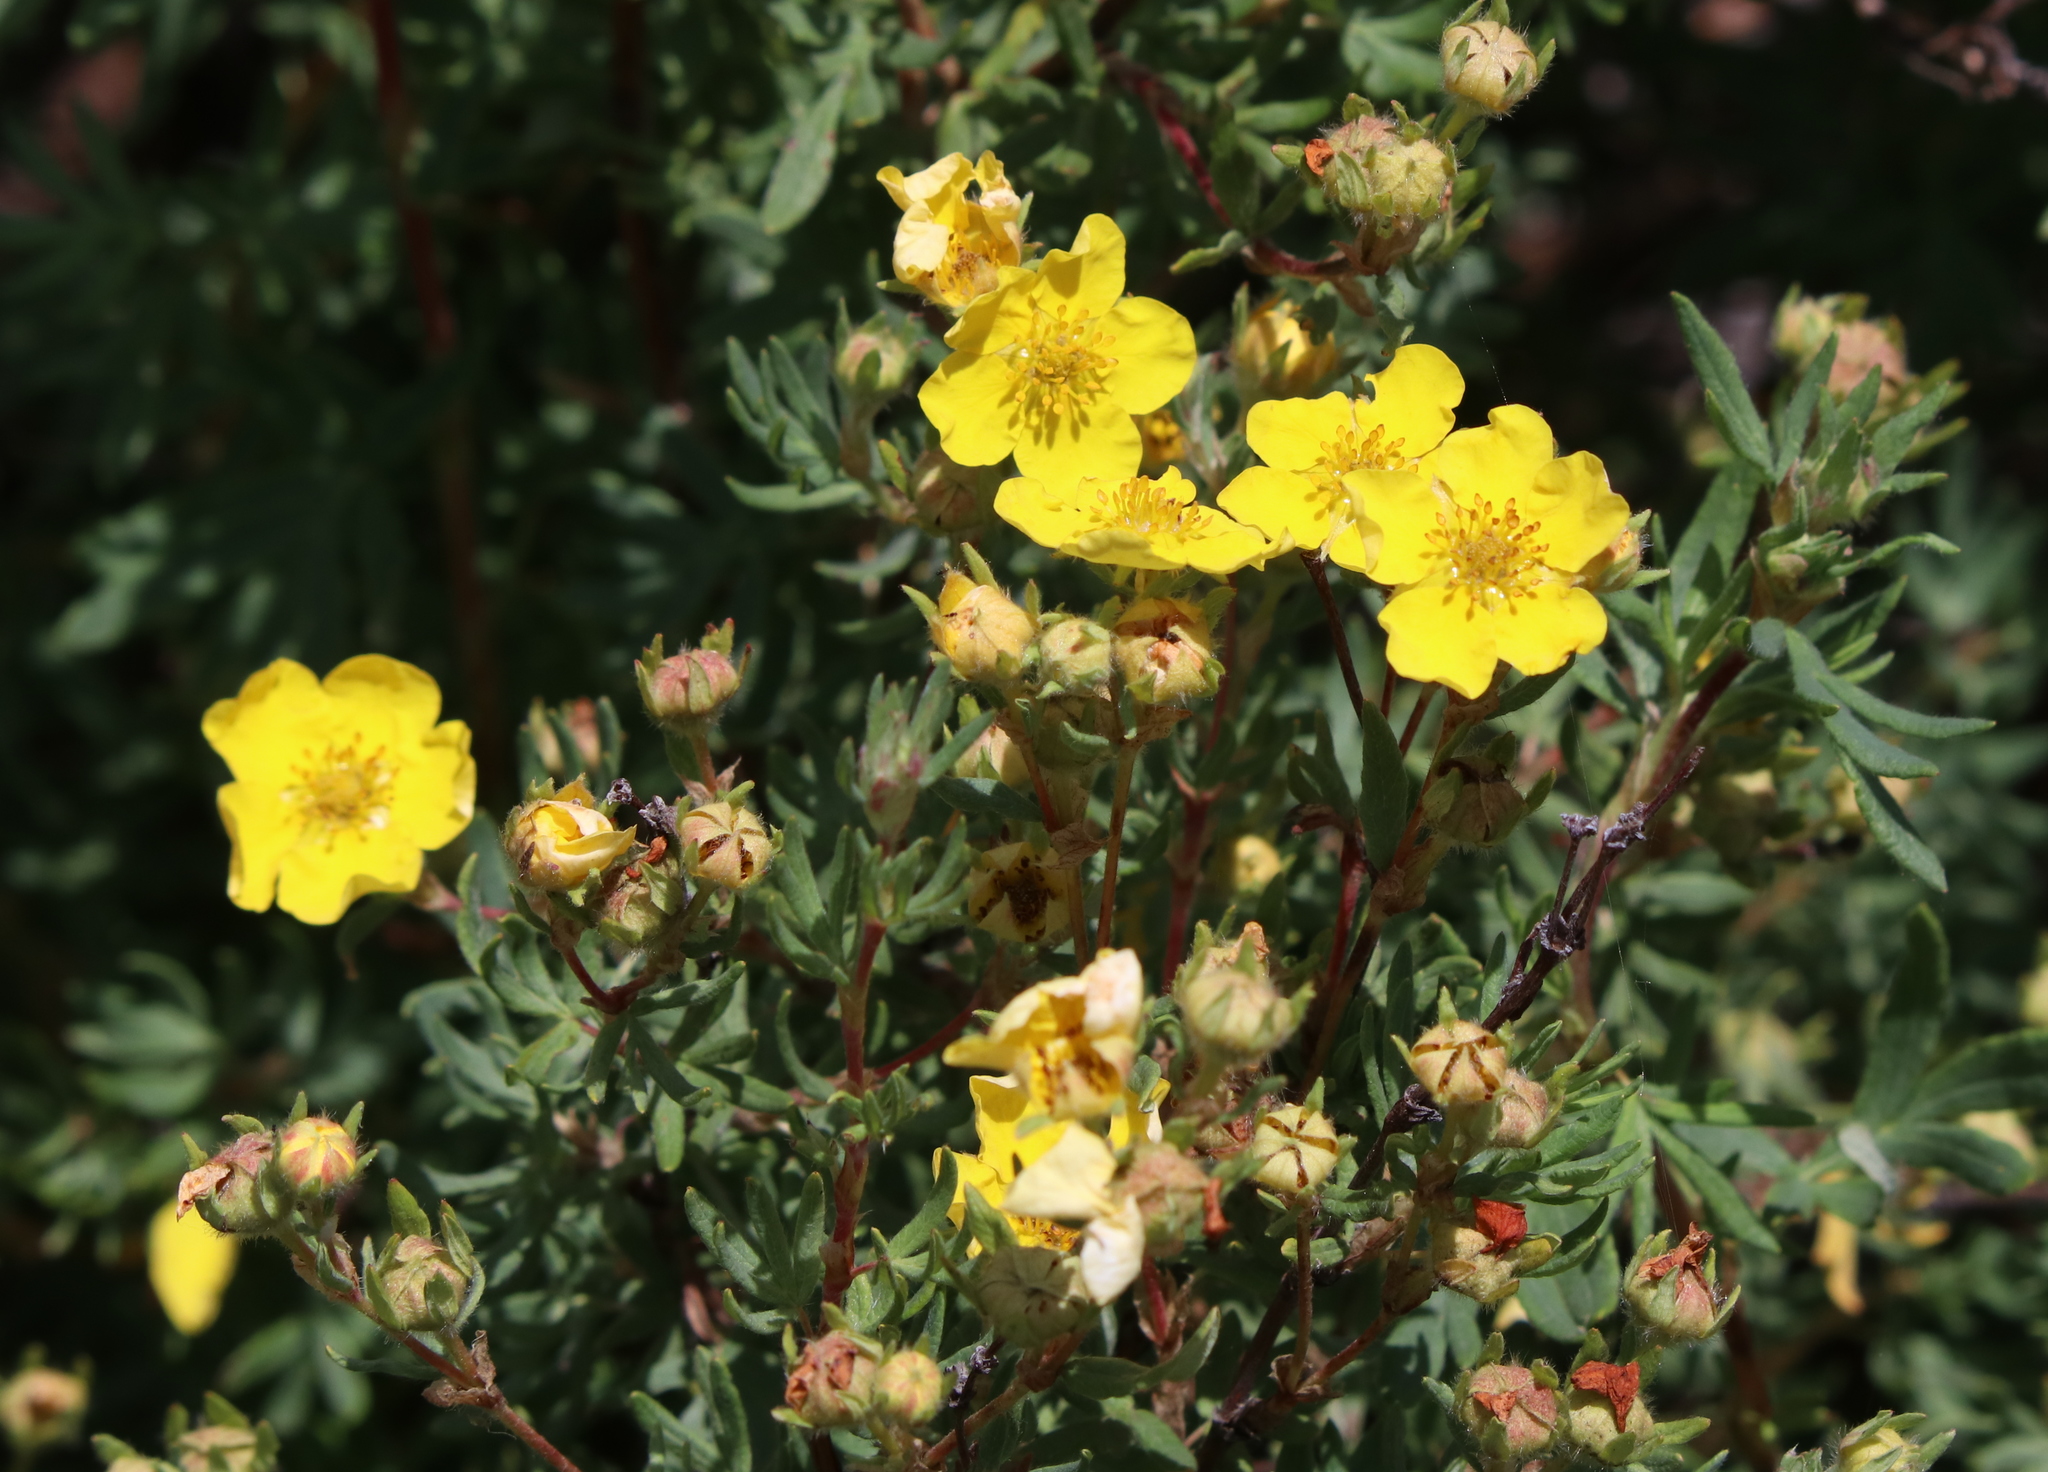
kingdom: Plantae
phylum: Tracheophyta
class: Magnoliopsida
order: Rosales
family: Rosaceae
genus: Dasiphora
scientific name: Dasiphora fruticosa
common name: Shrubby cinquefoil
